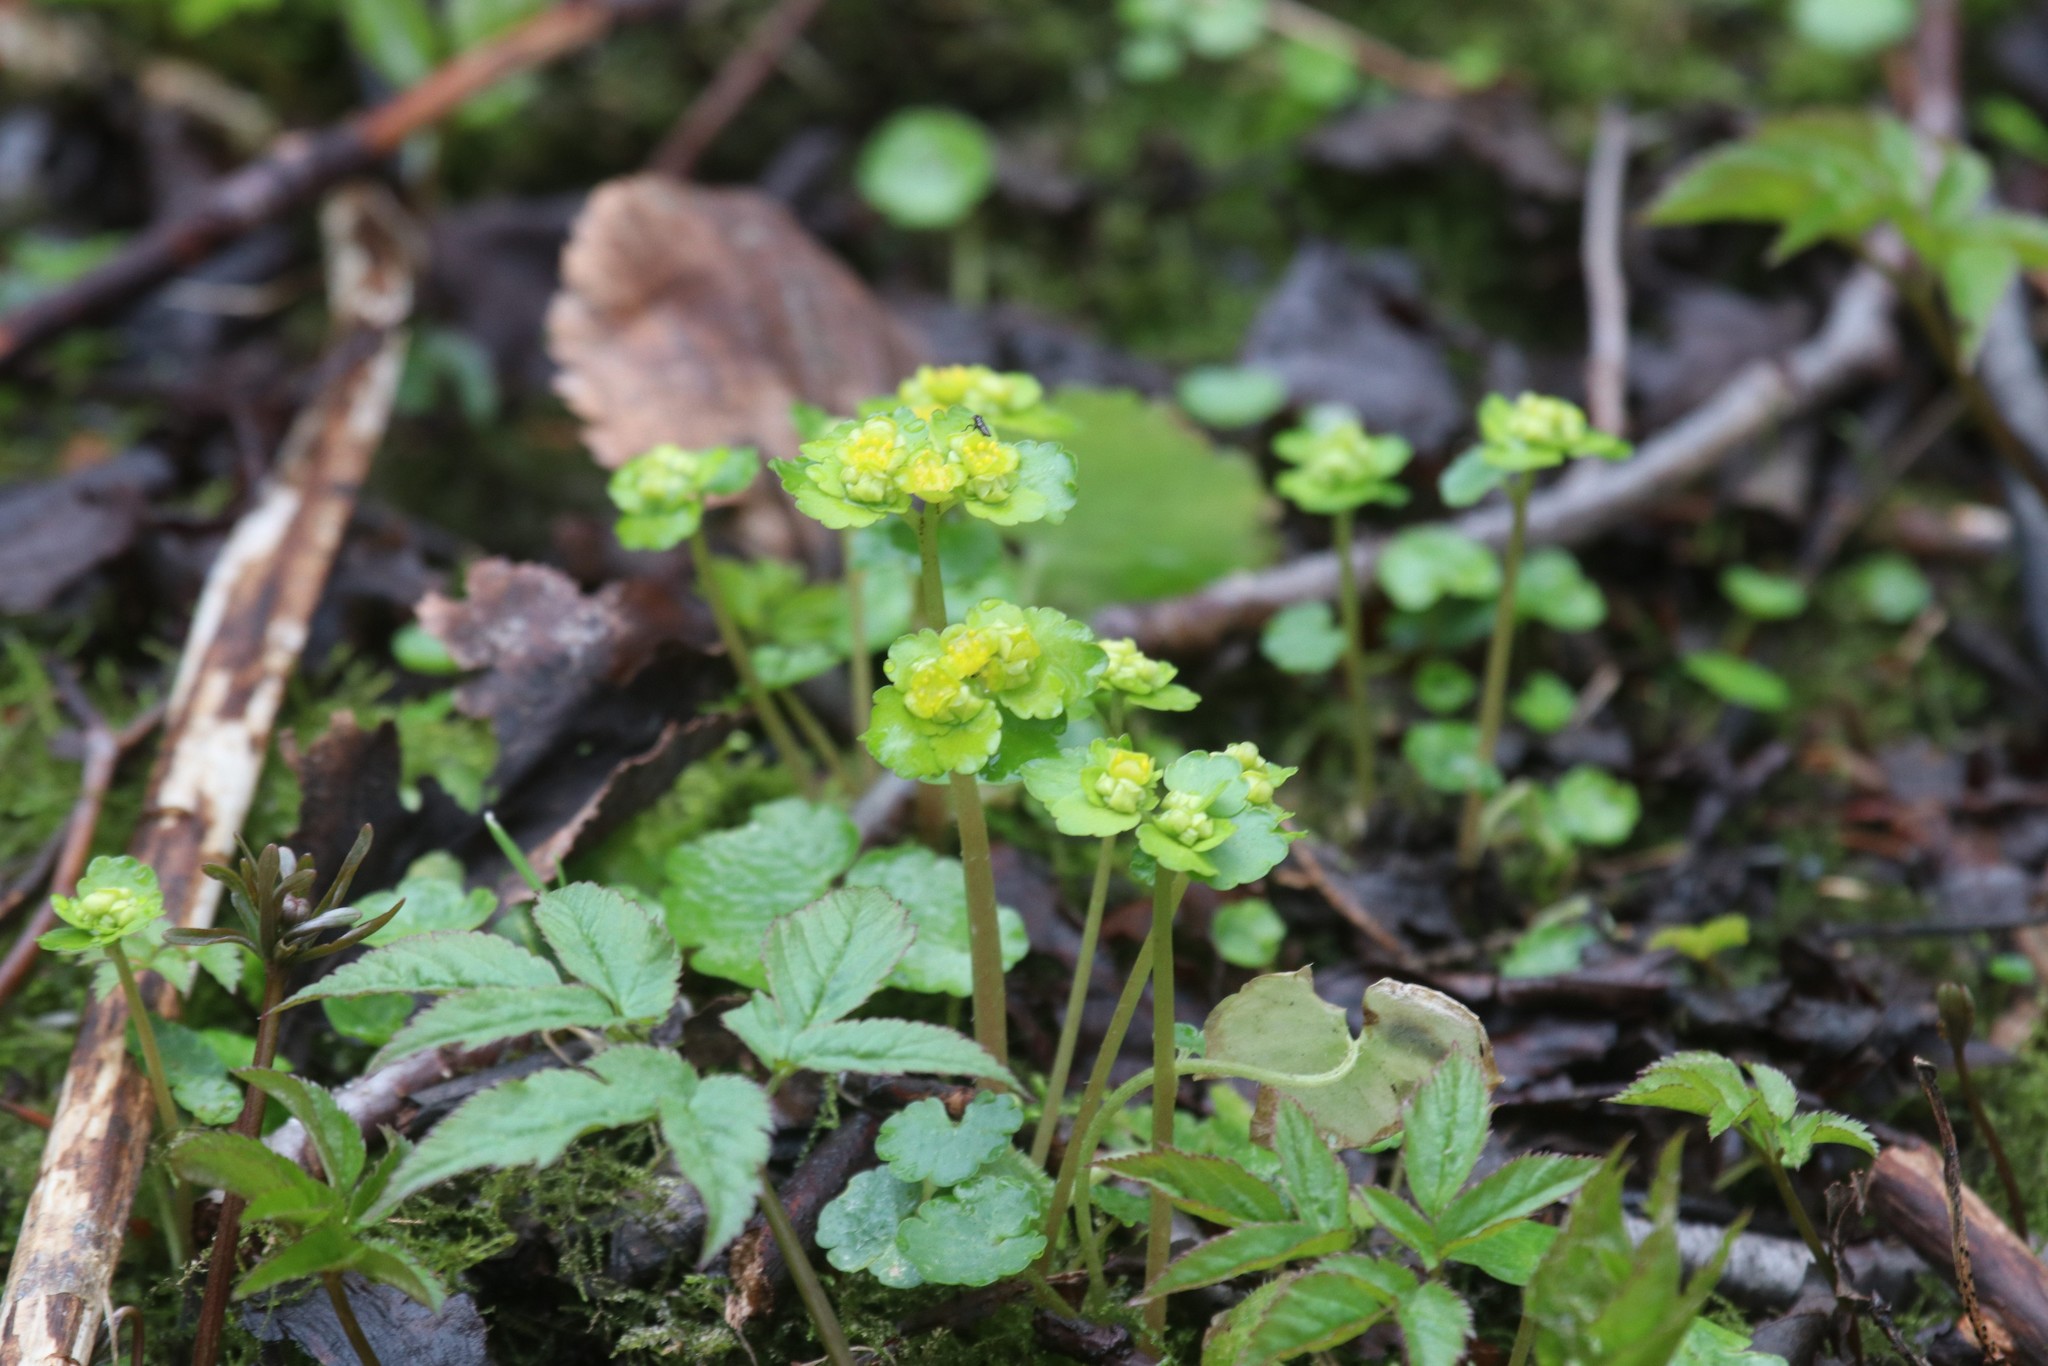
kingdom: Plantae
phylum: Tracheophyta
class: Magnoliopsida
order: Saxifragales
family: Saxifragaceae
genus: Chrysosplenium
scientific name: Chrysosplenium alternifolium
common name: Alternate-leaved golden-saxifrage
